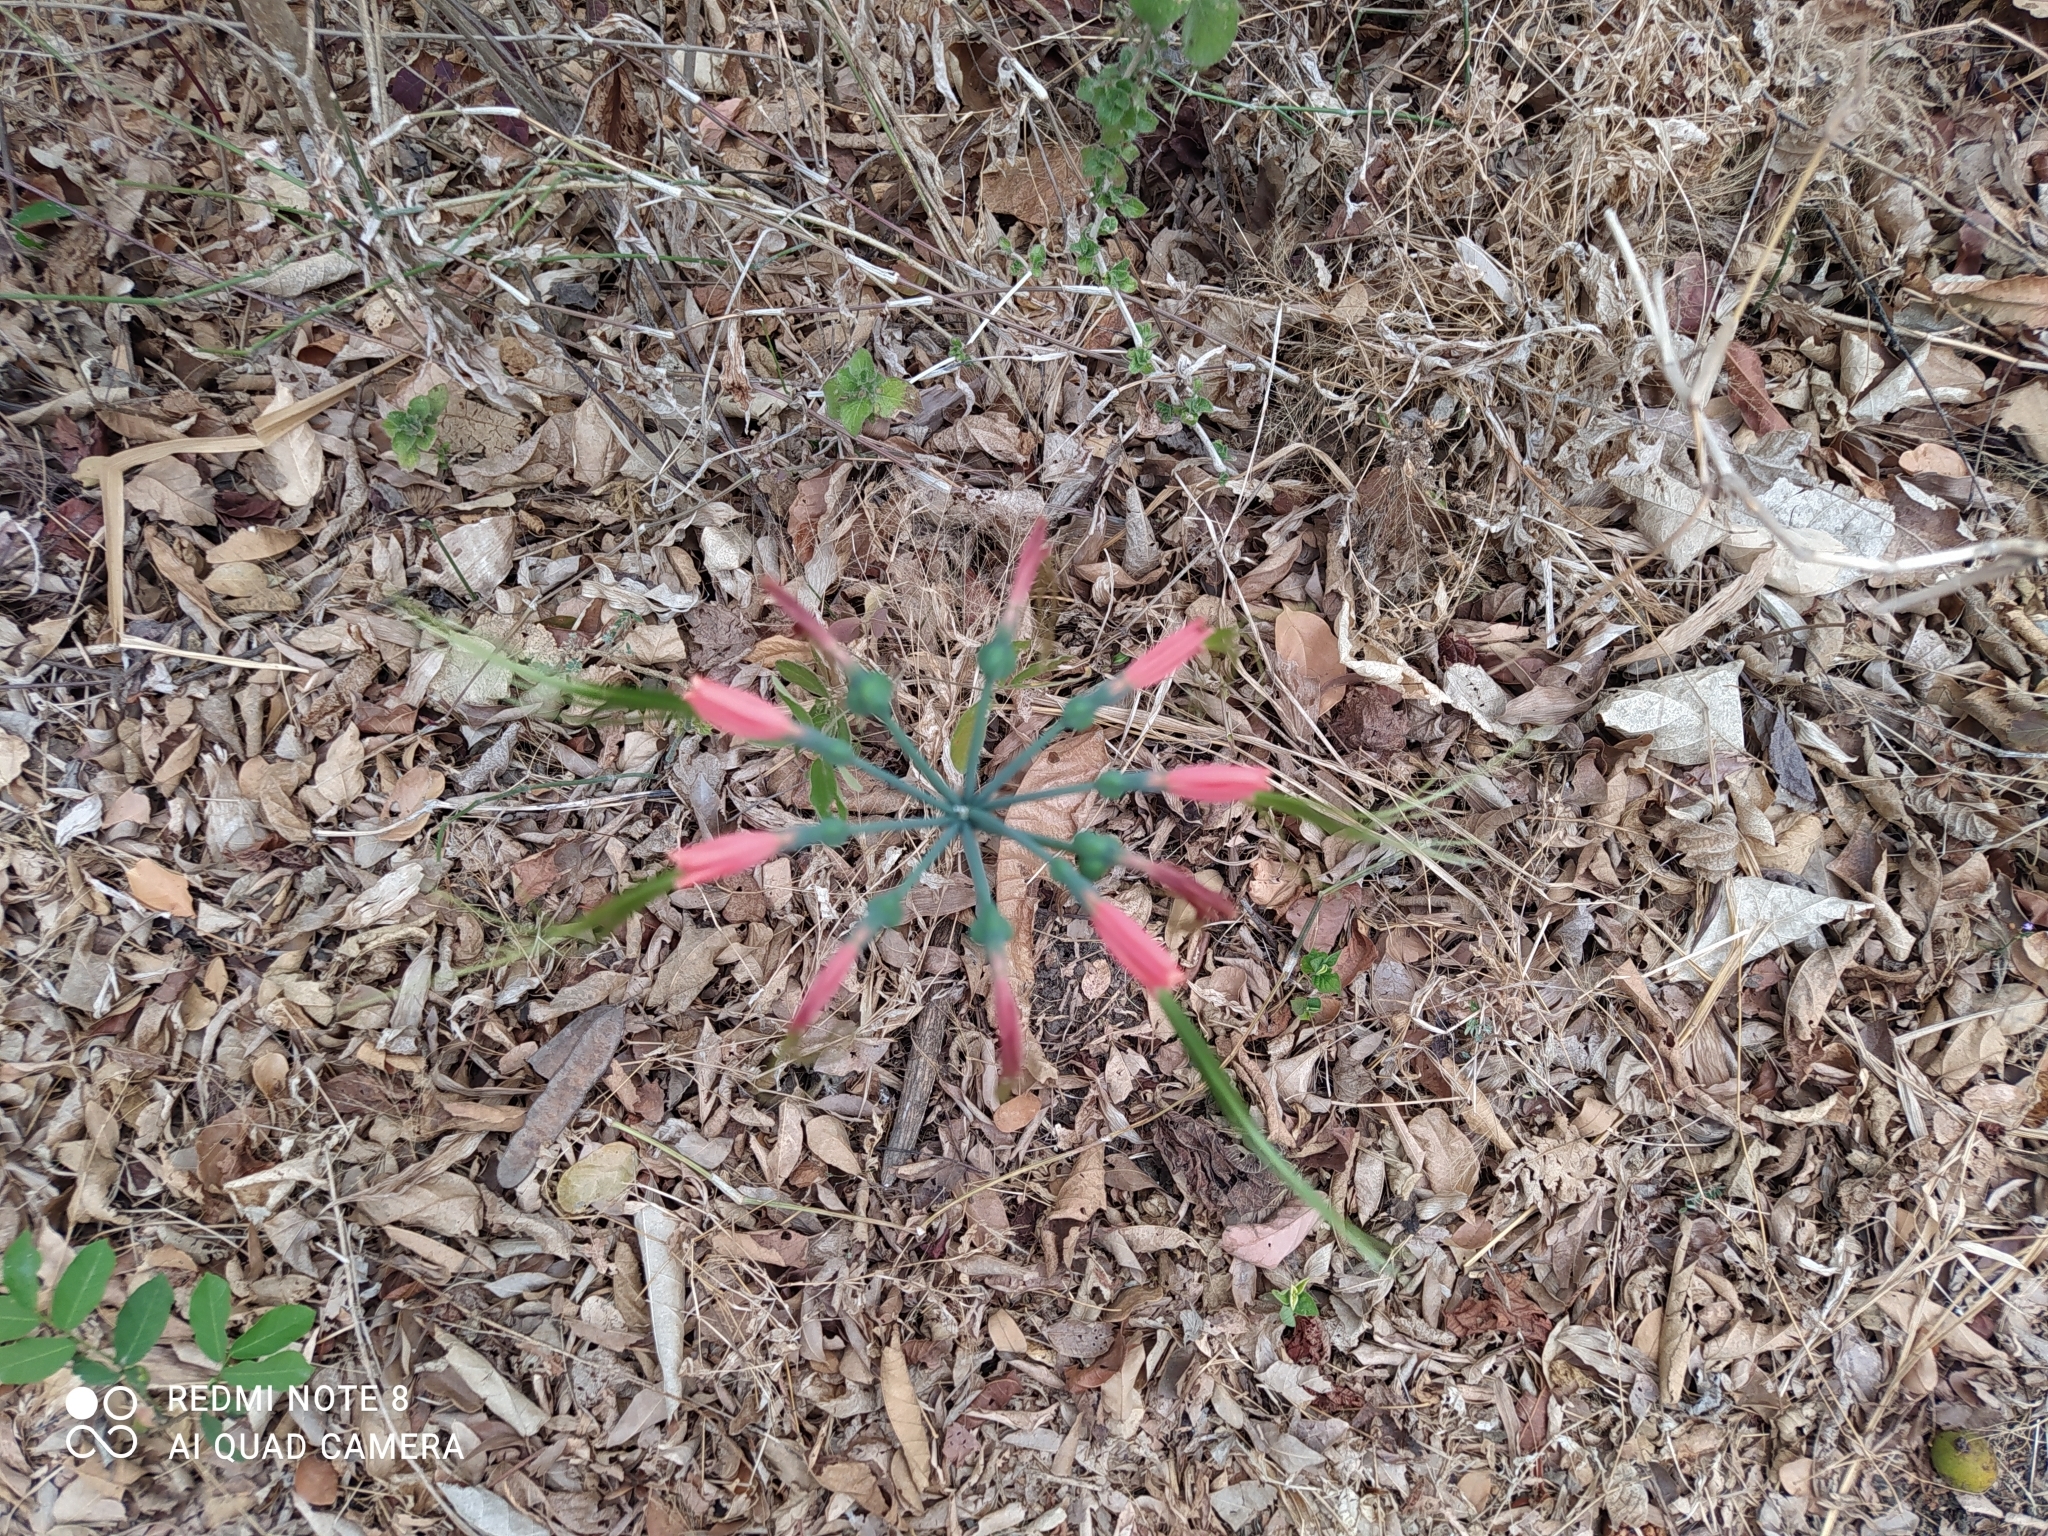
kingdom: Plantae
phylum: Tracheophyta
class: Liliopsida
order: Asparagales
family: Amaryllidaceae
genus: Eucrosia
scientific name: Eucrosia eucrosioides
